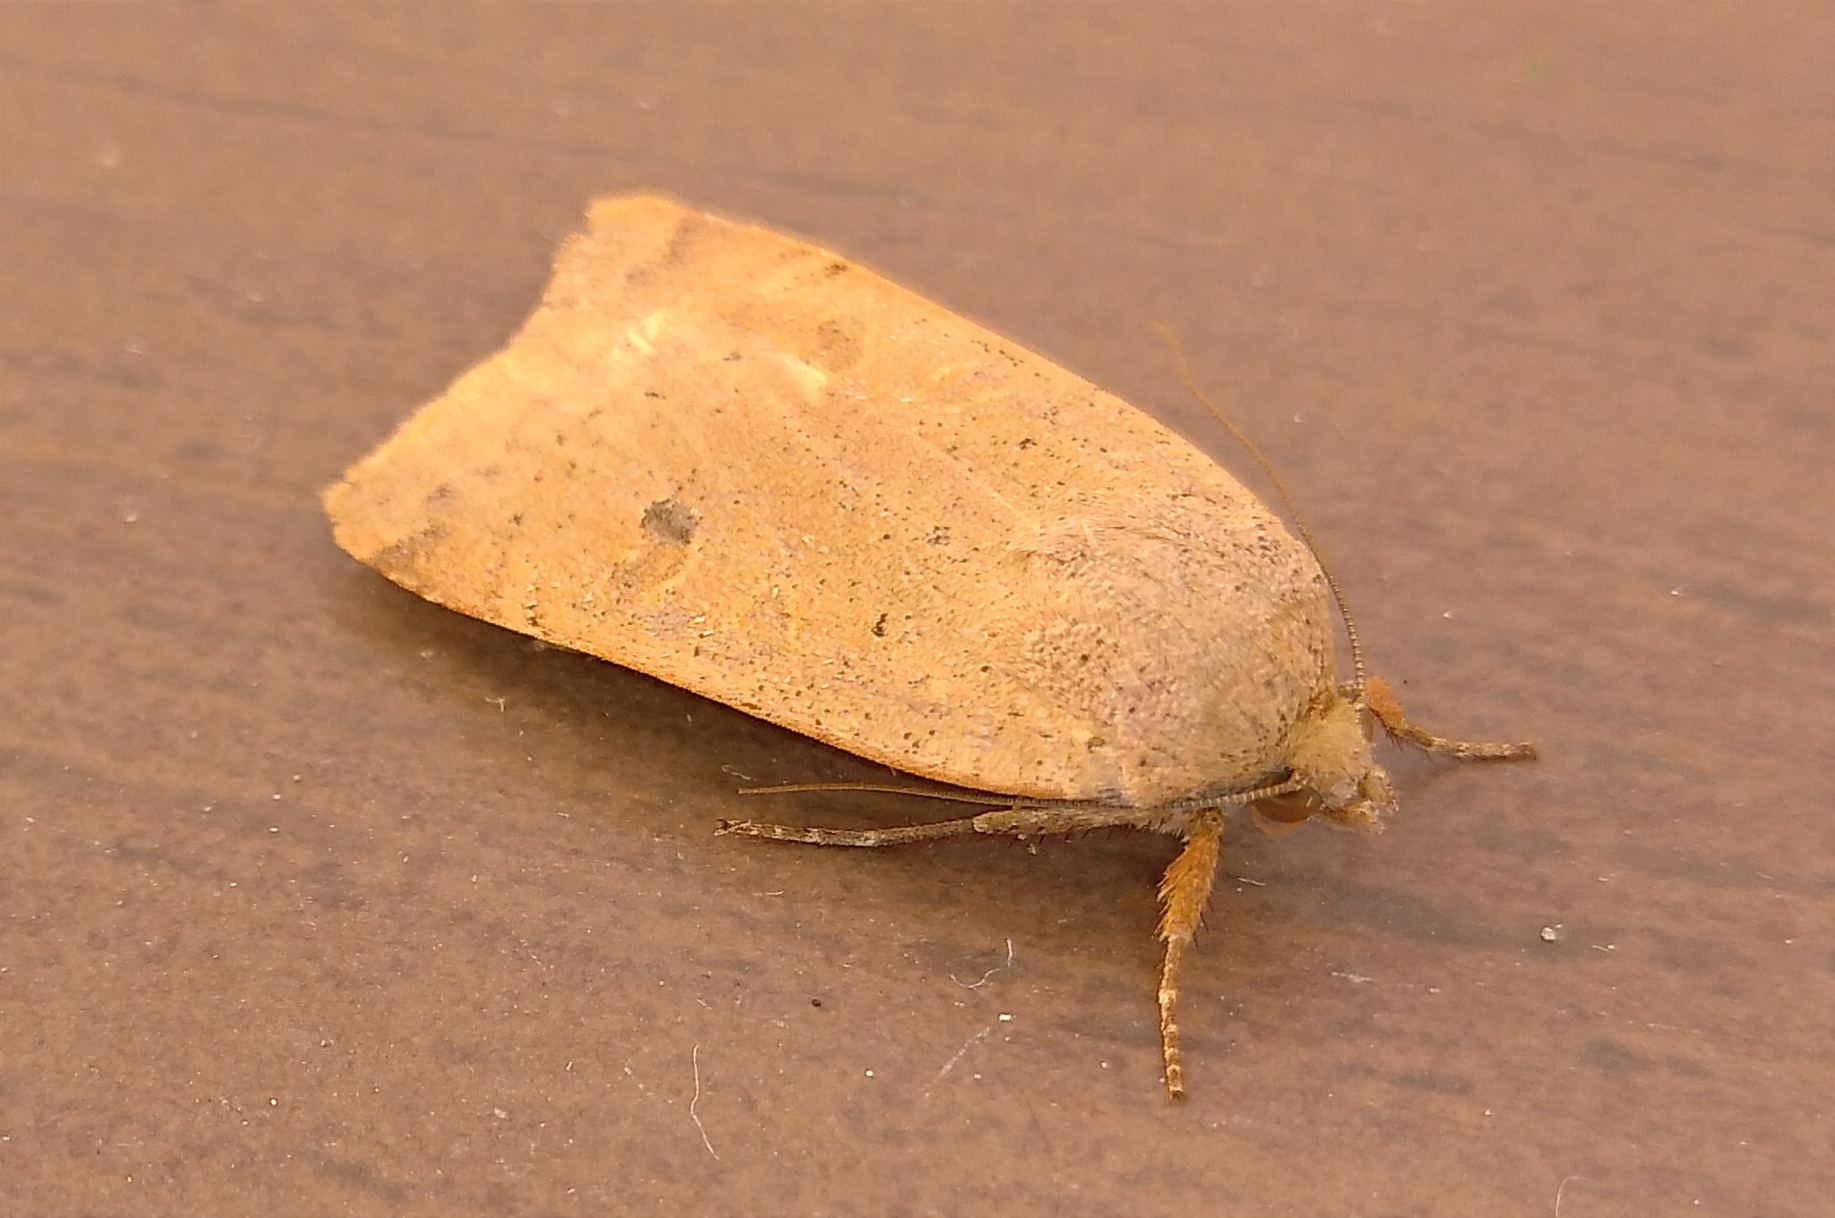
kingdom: Animalia
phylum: Arthropoda
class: Insecta
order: Lepidoptera
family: Noctuidae
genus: Noctua
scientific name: Noctua comes
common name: Lesser yellow underwing
